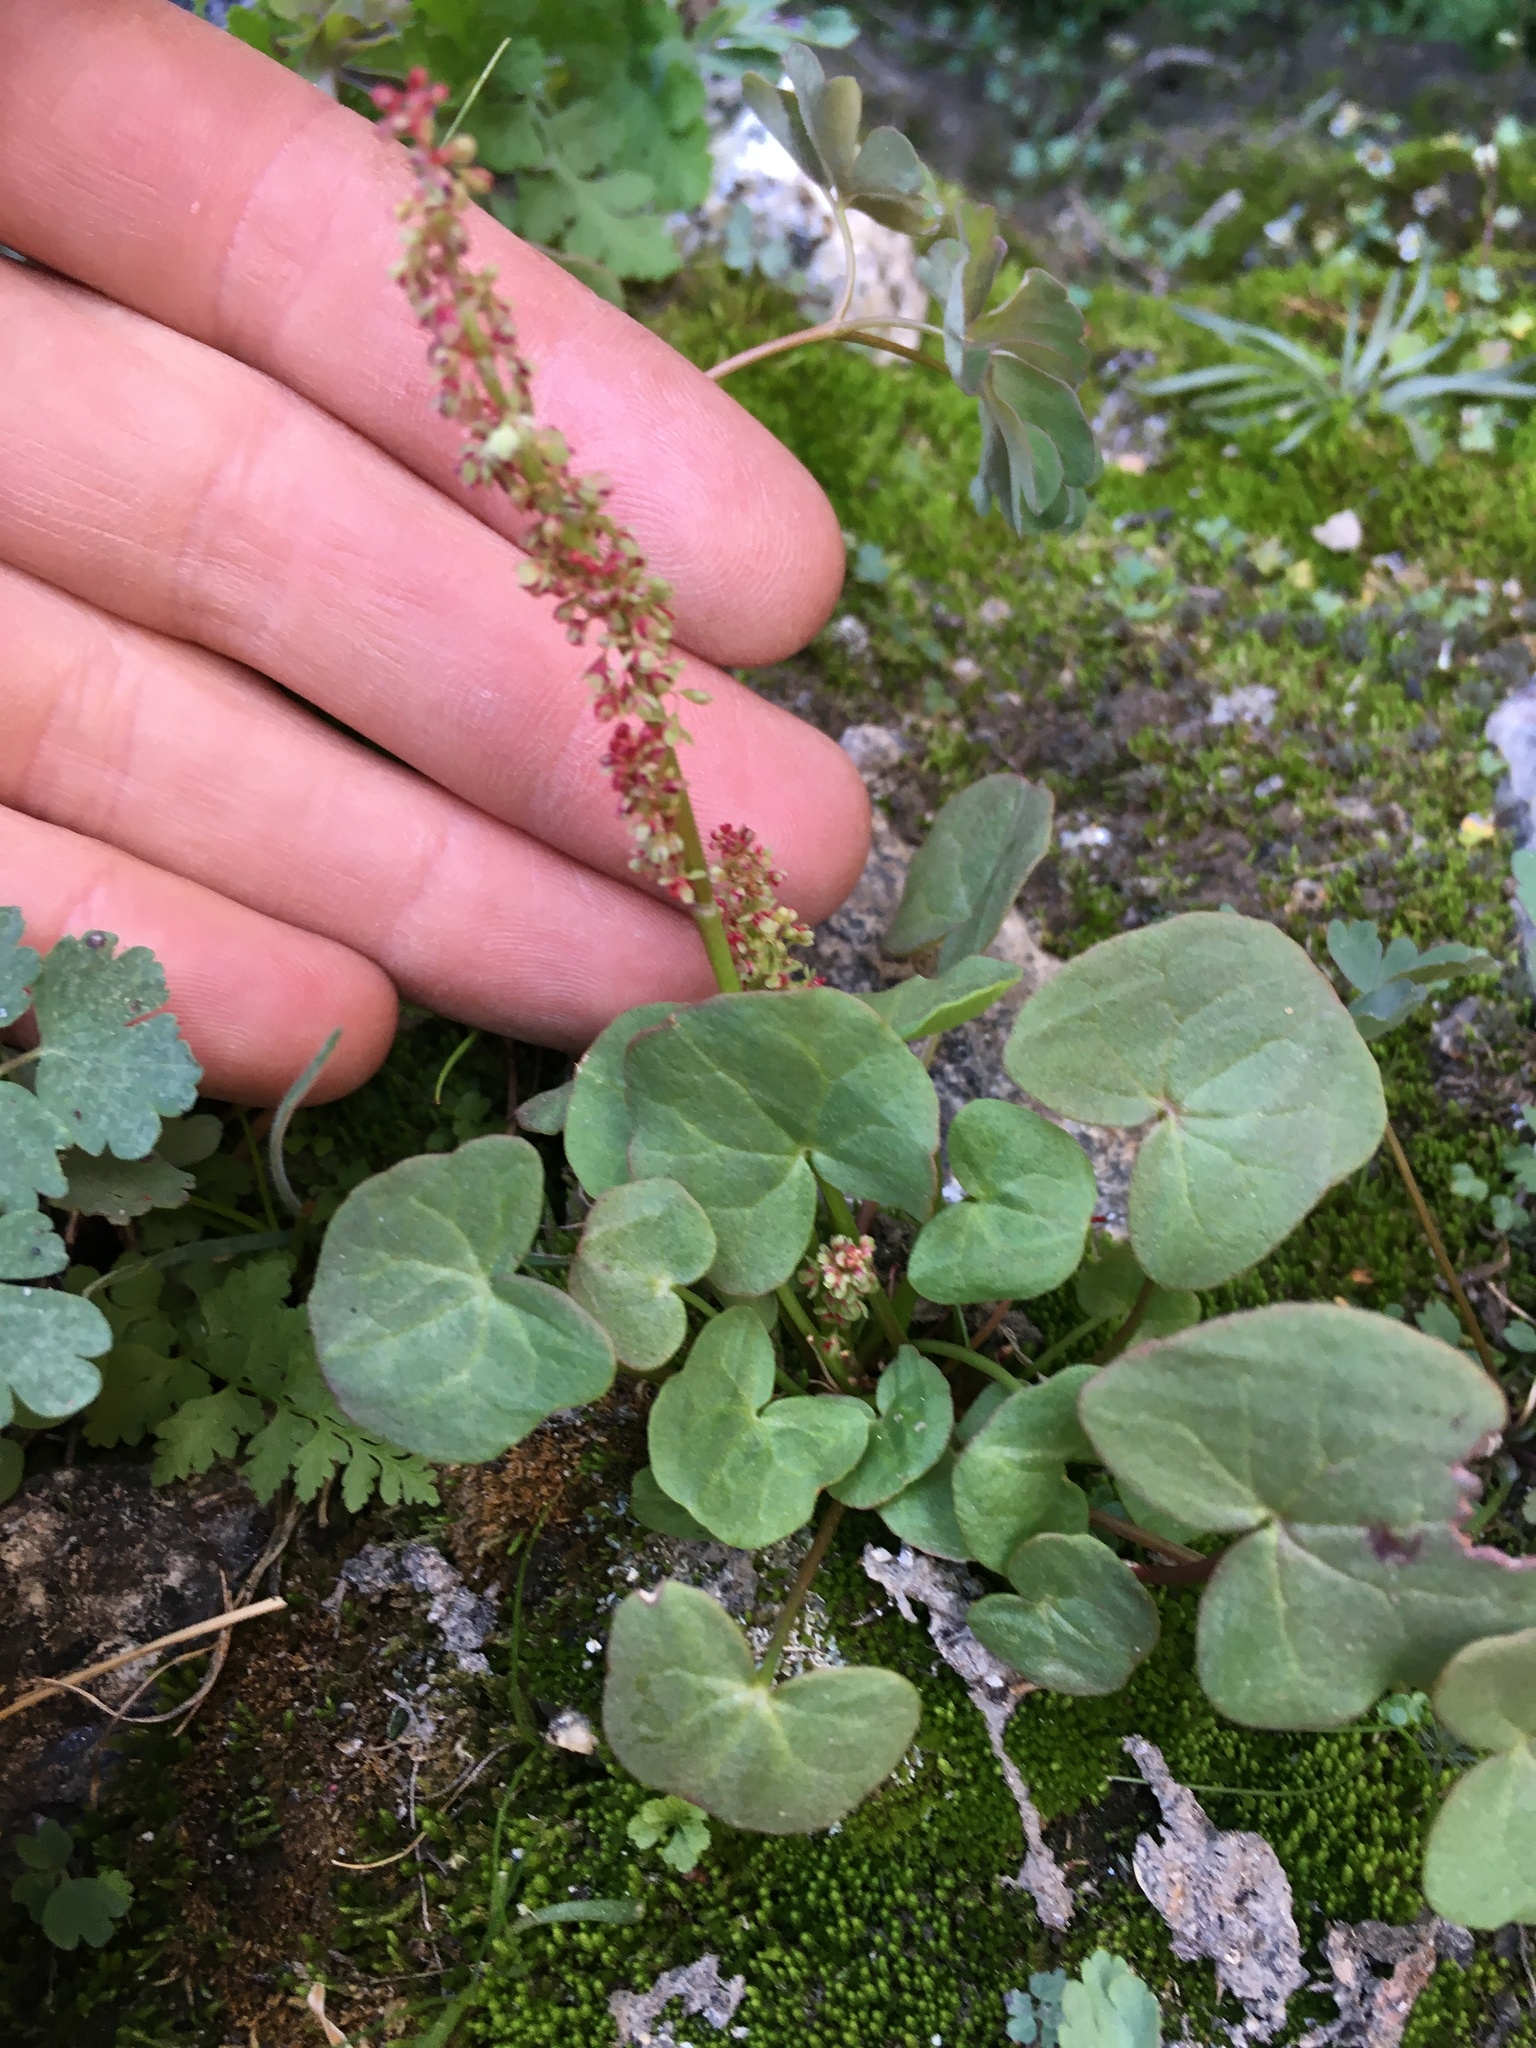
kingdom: Plantae
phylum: Tracheophyta
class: Magnoliopsida
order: Caryophyllales
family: Polygonaceae
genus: Oxyria
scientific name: Oxyria digyna
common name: Alpine mountain-sorrel
